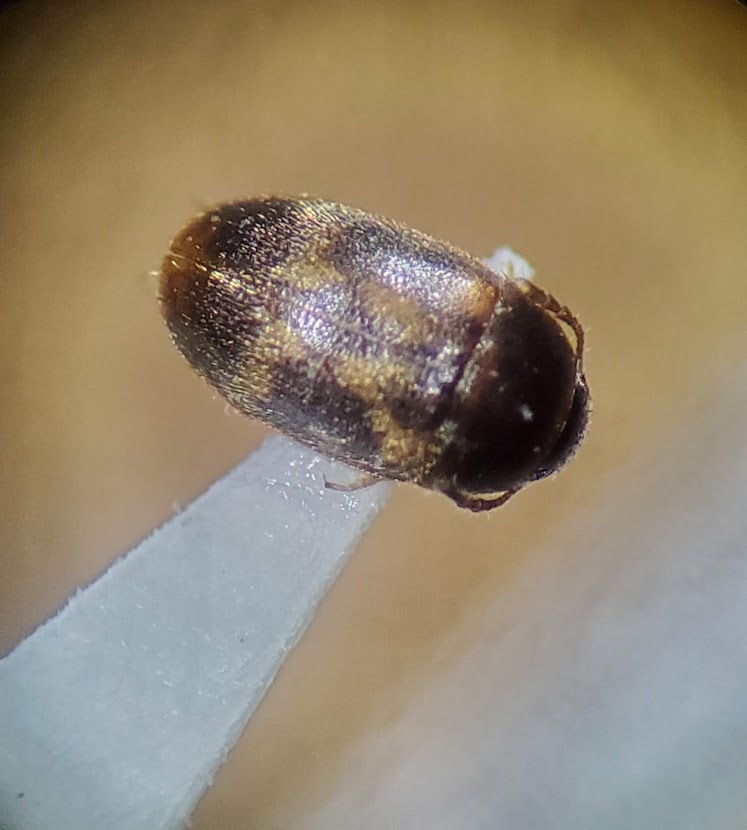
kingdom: Animalia
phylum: Arthropoda
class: Insecta
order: Coleoptera
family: Mycetophagidae
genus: Litargus
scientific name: Litargus balteatus
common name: Stored grain hairy fungus beetle
